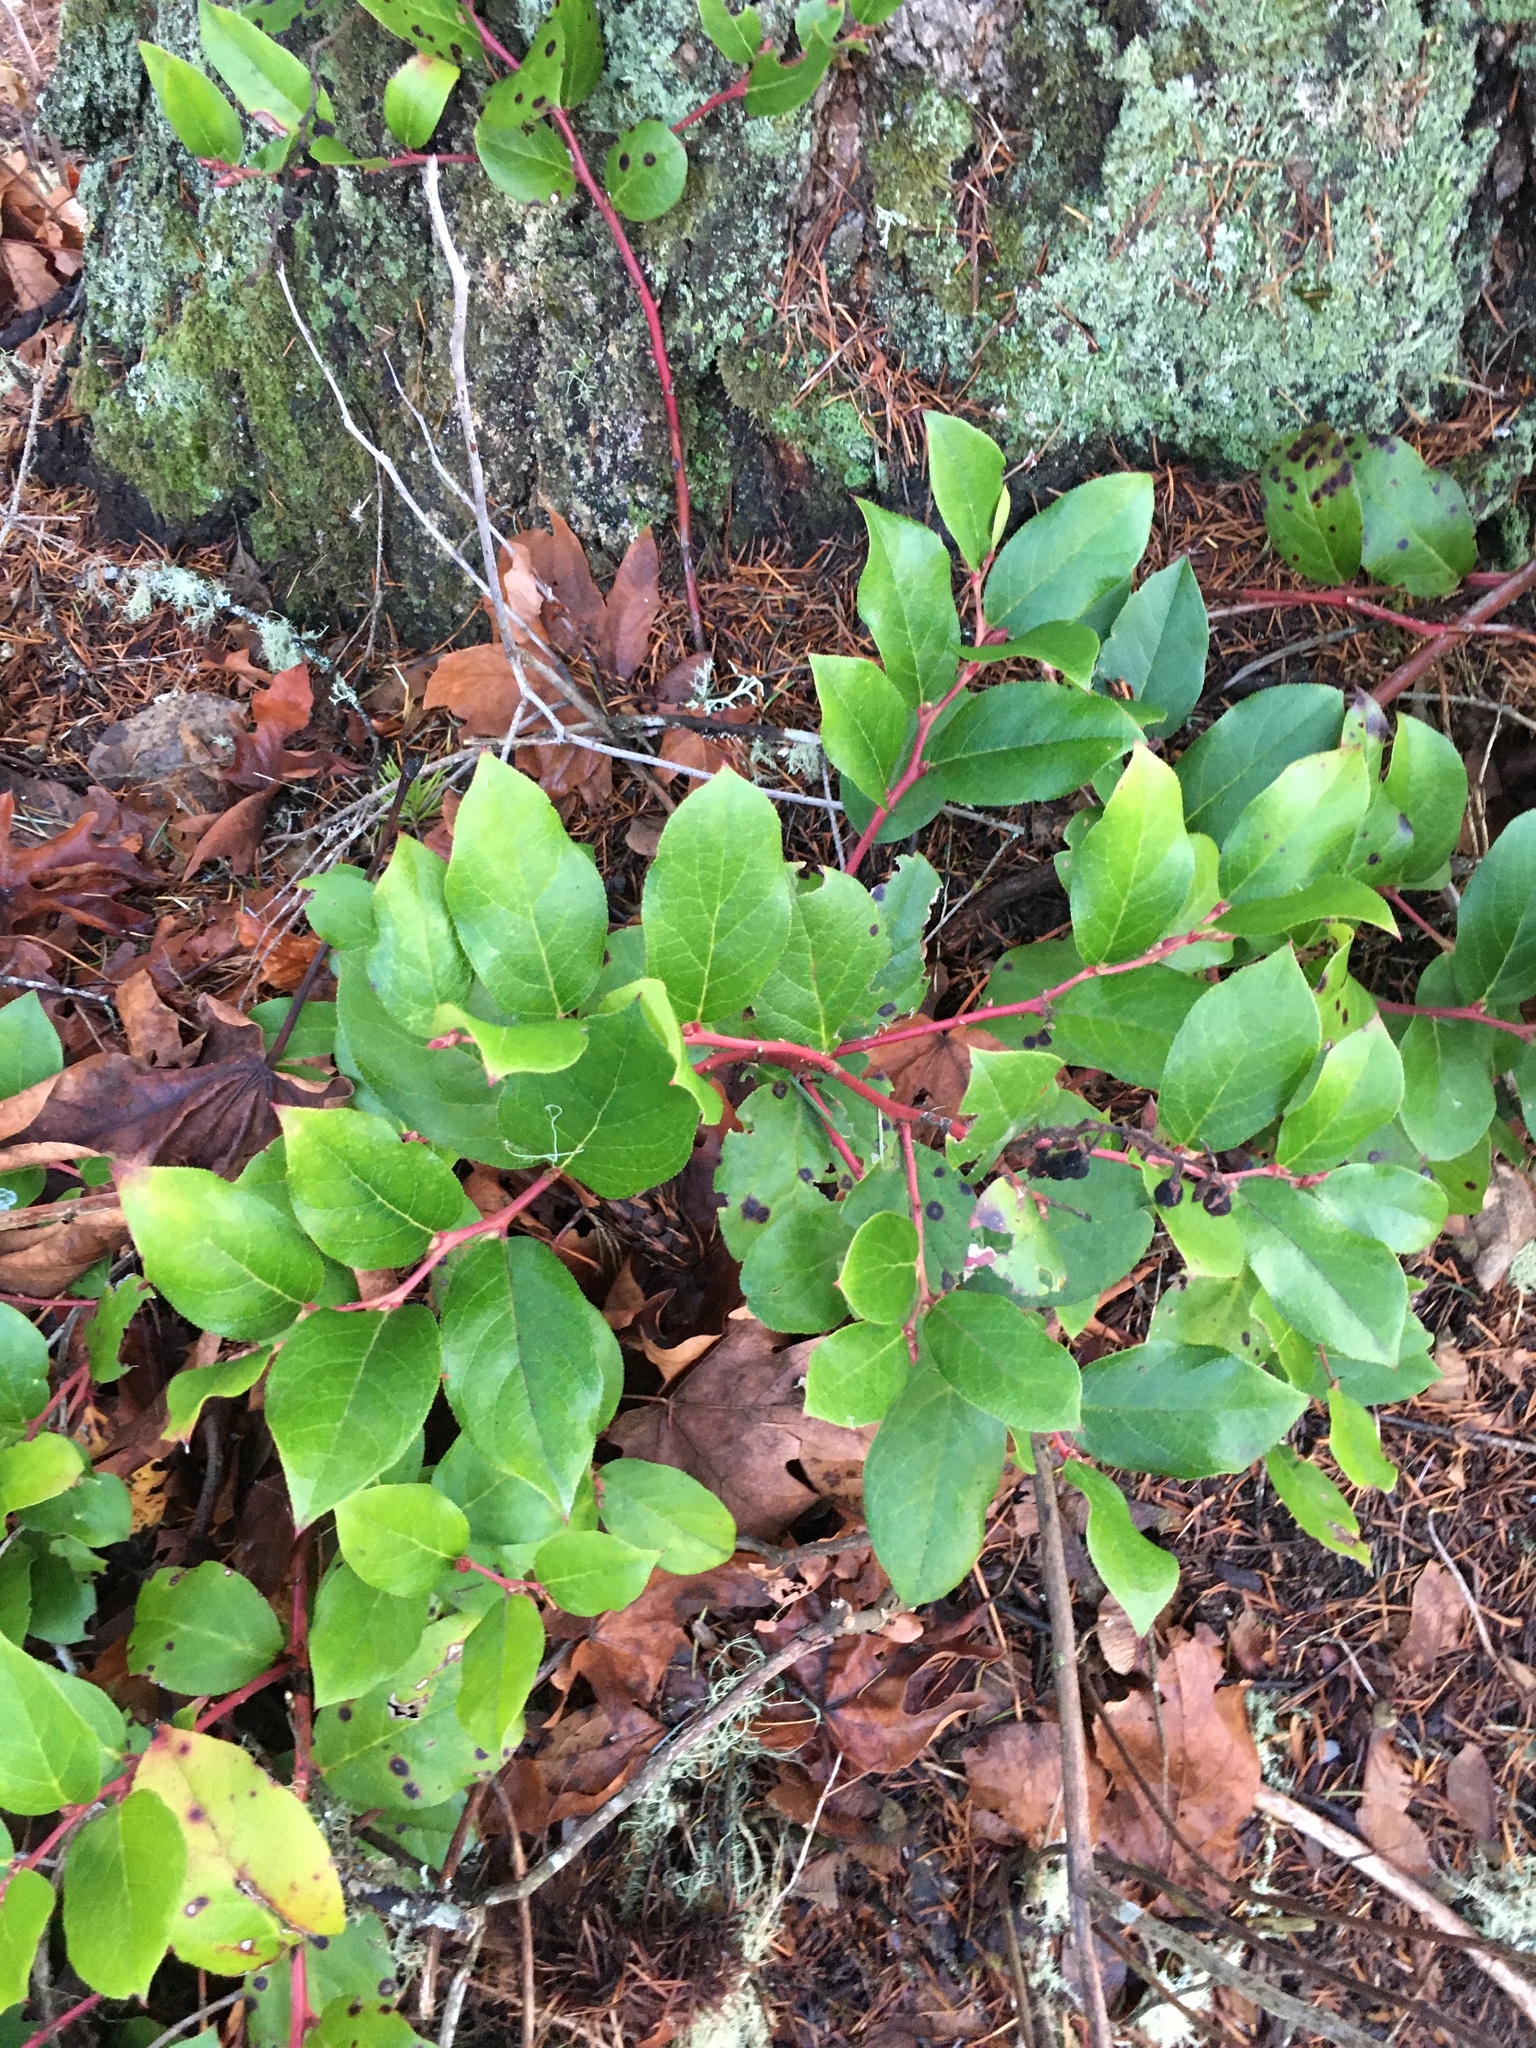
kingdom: Plantae
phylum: Tracheophyta
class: Magnoliopsida
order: Ericales
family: Ericaceae
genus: Gaultheria
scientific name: Gaultheria shallon
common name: Shallon
